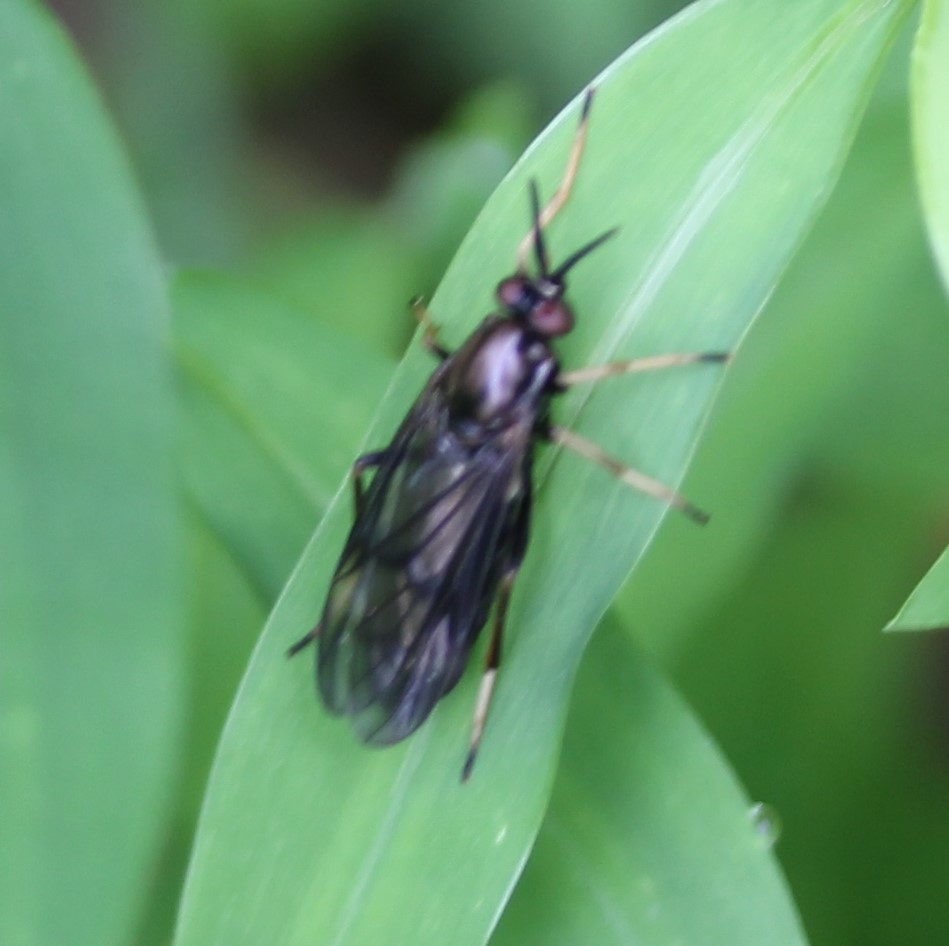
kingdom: Animalia
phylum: Arthropoda
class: Insecta
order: Diptera
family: Xylophagidae
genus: Rachicerus
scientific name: Rachicerus obscuripennis
